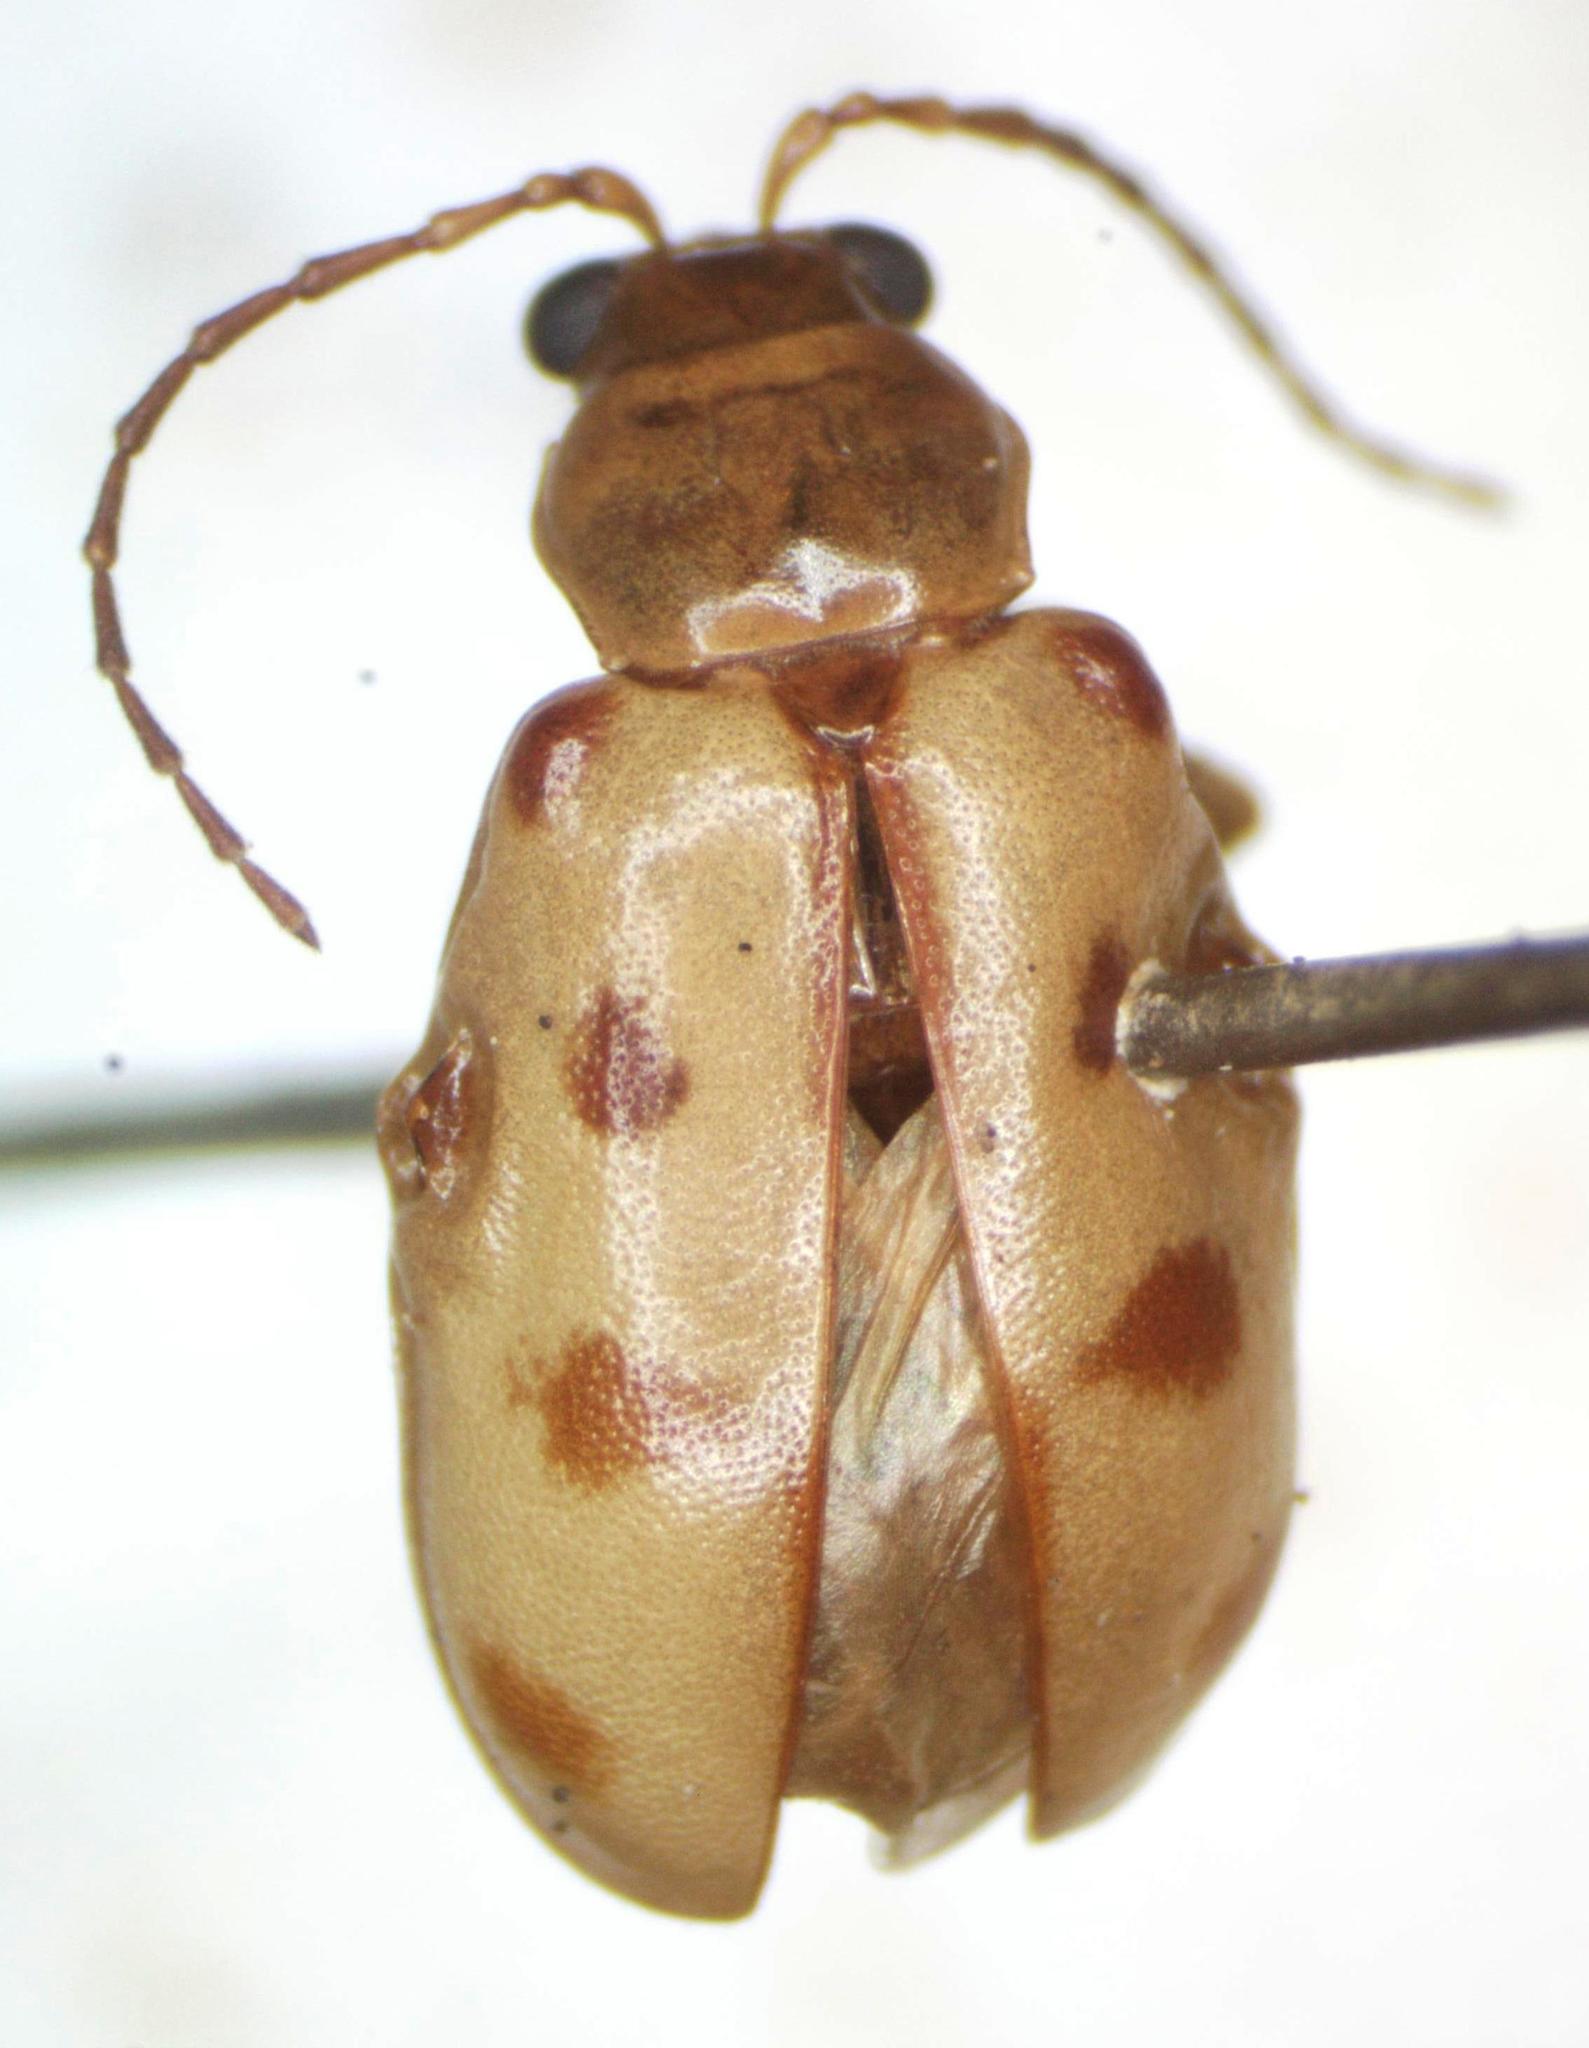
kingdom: Animalia
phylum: Arthropoda
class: Insecta
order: Coleoptera
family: Chrysomelidae
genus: Malacorhinus
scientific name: Malacorhinus
